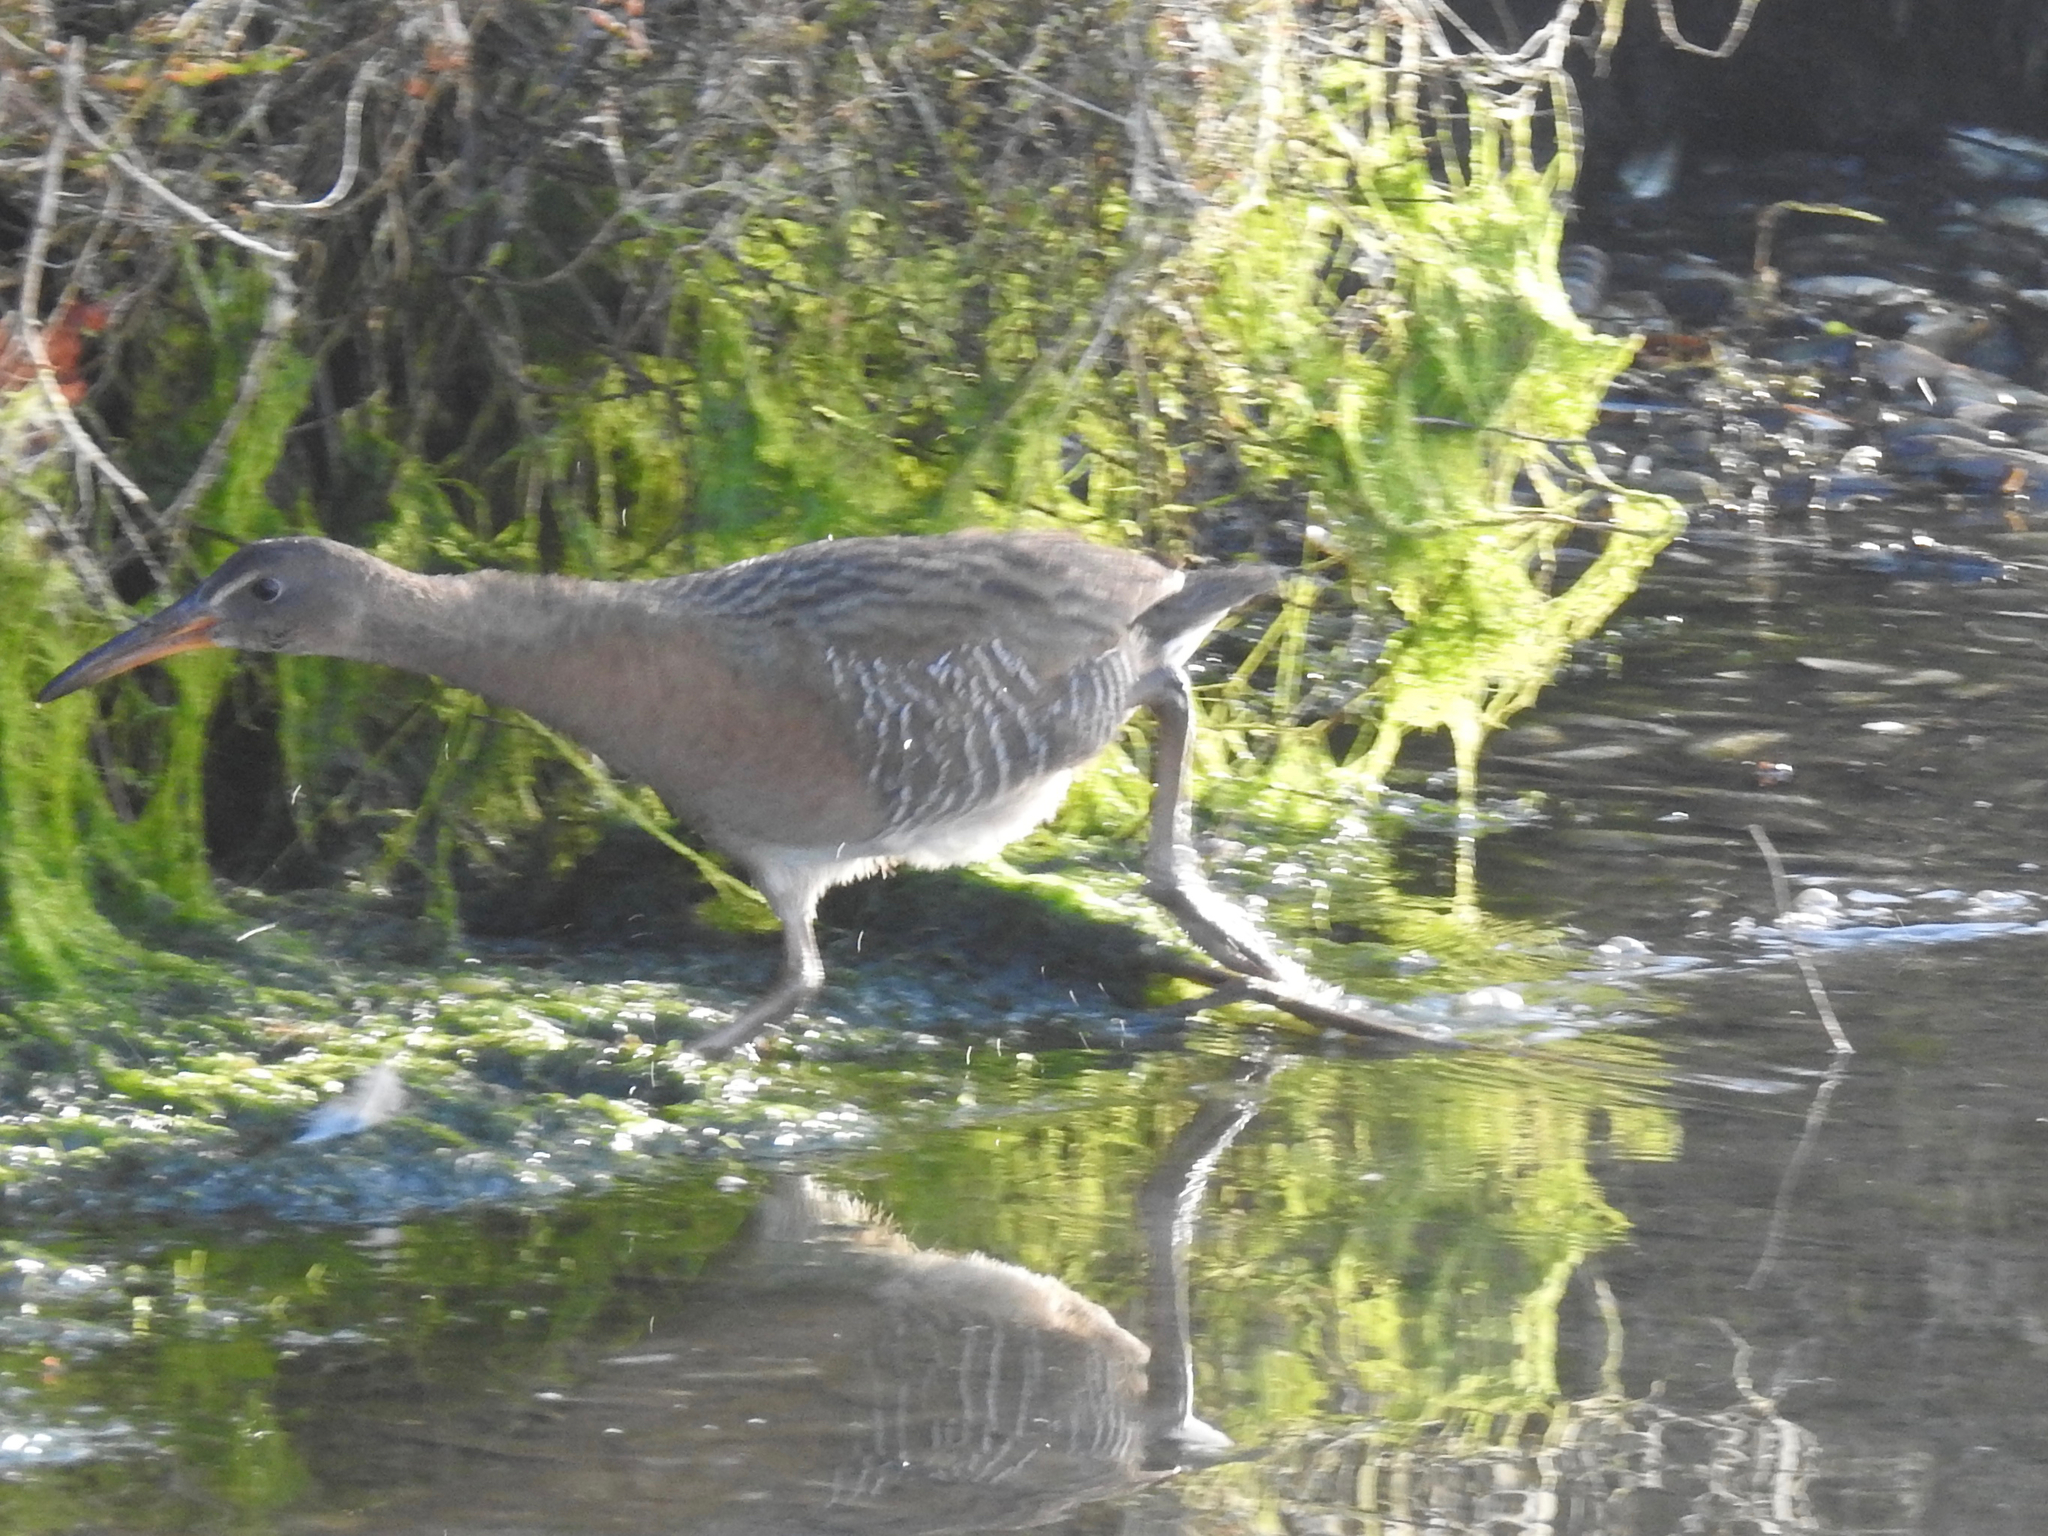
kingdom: Animalia
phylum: Chordata
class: Aves
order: Gruiformes
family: Rallidae
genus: Rallus
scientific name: Rallus obsoletus
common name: Ridgway's rail
